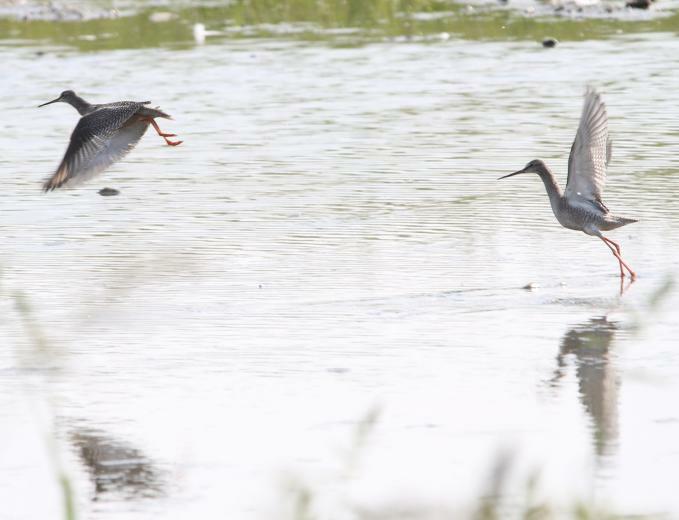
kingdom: Animalia
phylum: Chordata
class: Aves
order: Charadriiformes
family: Scolopacidae
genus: Tringa
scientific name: Tringa erythropus
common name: Spotted redshank
